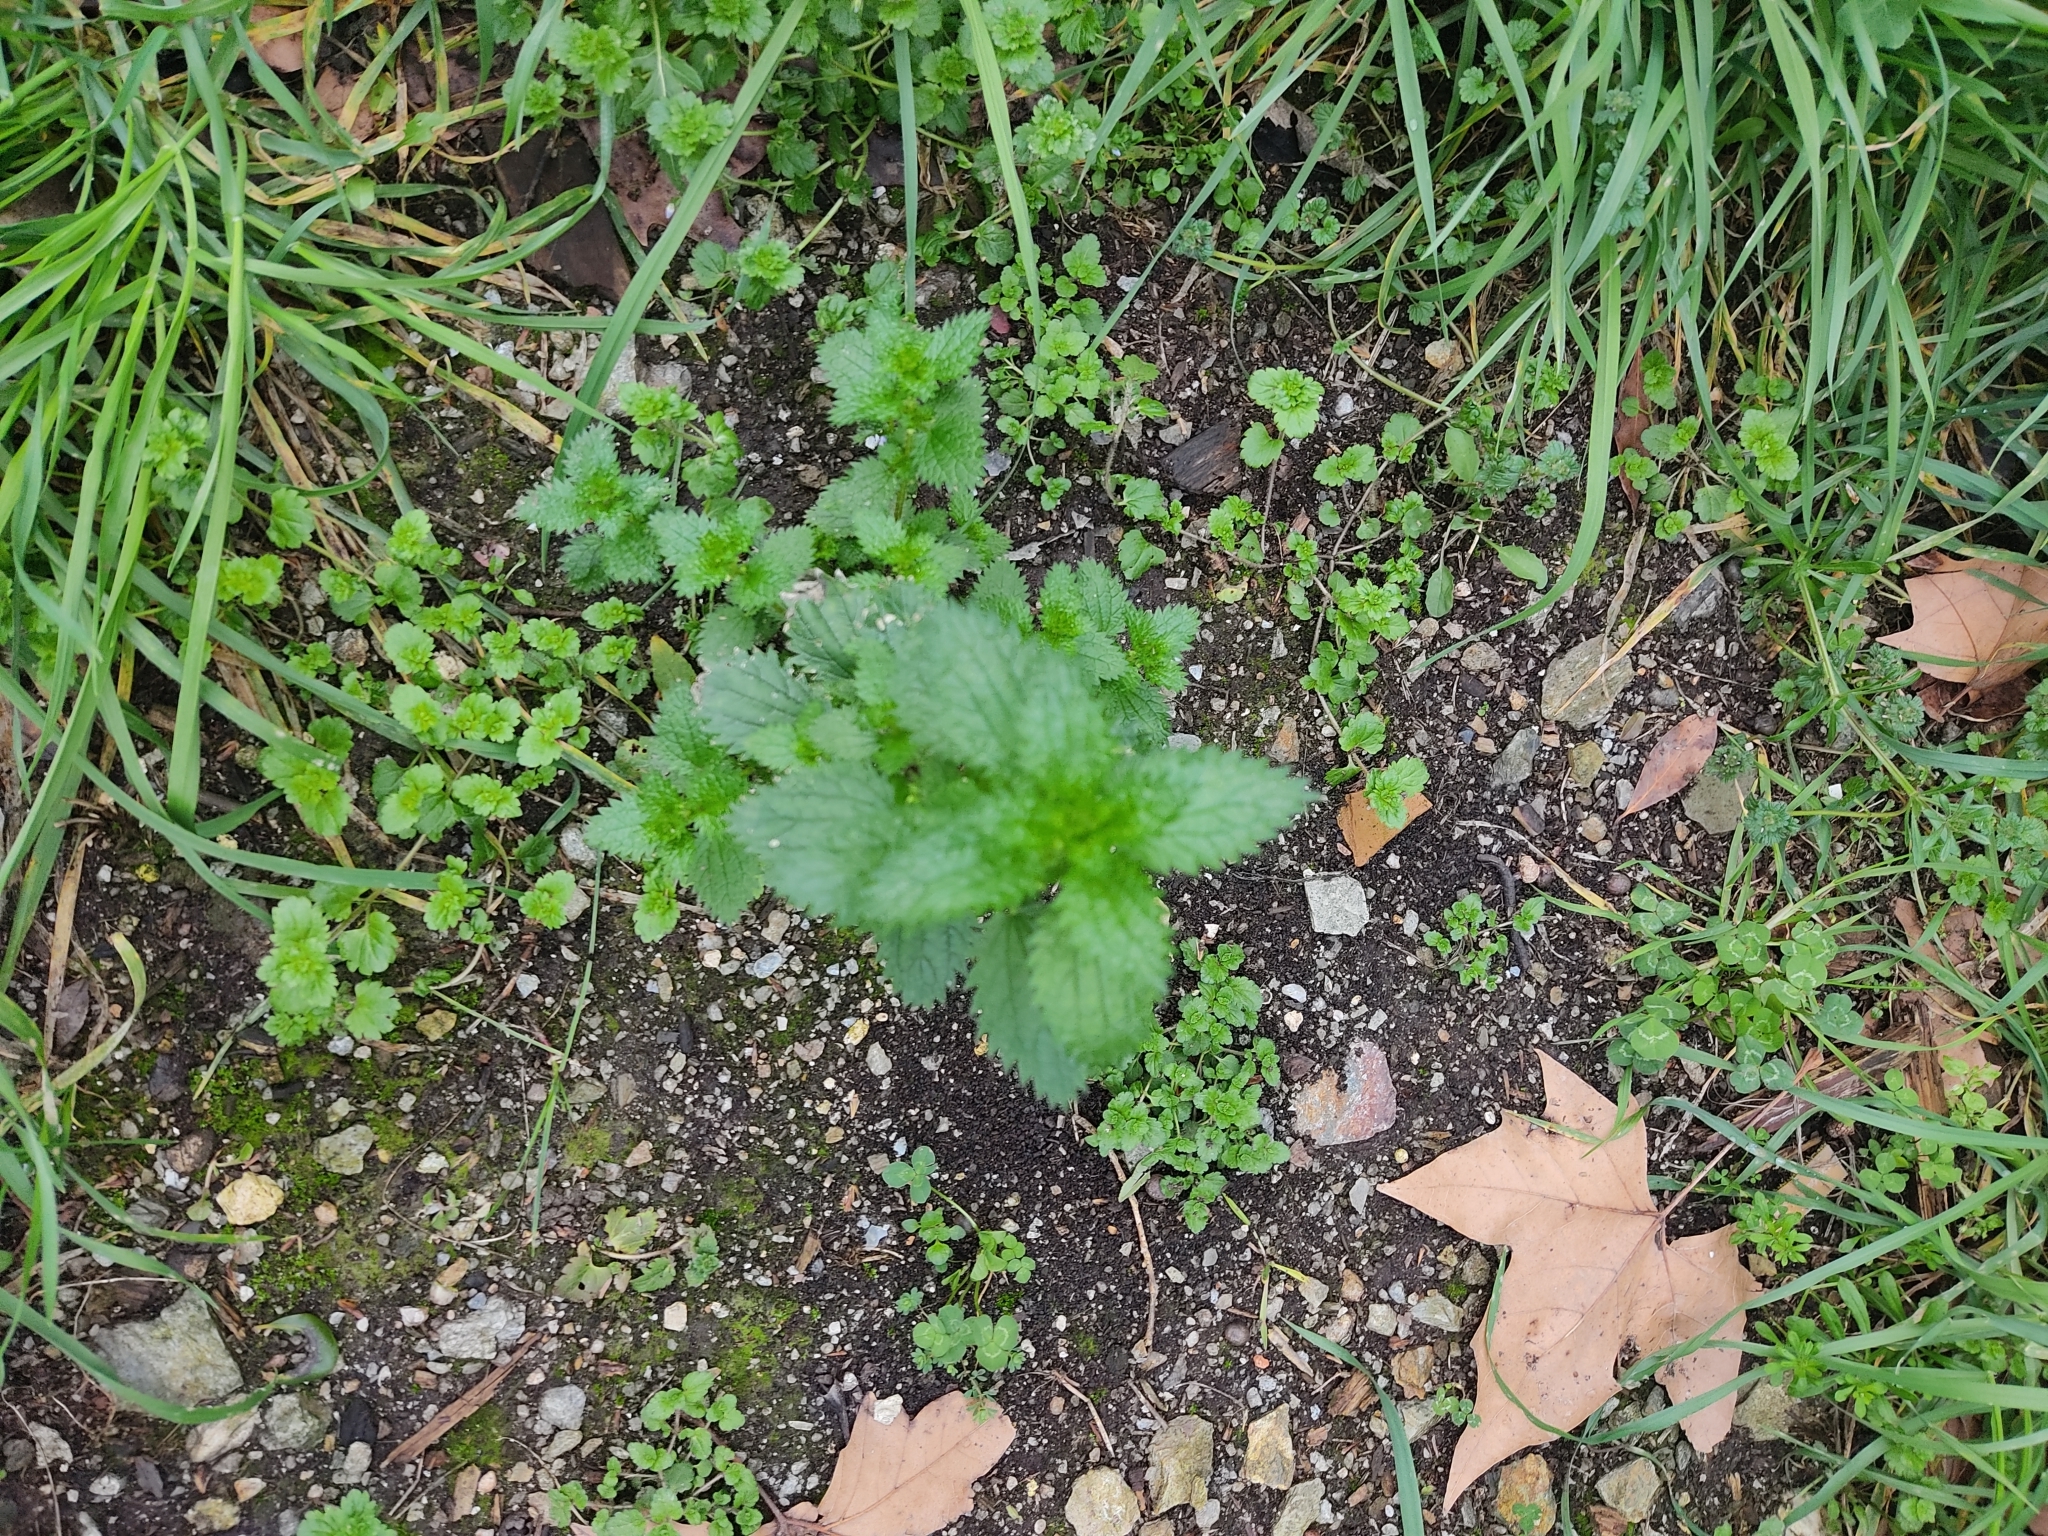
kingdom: Plantae
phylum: Tracheophyta
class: Magnoliopsida
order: Rosales
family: Urticaceae
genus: Urtica
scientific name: Urtica urens
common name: Dwarf nettle
